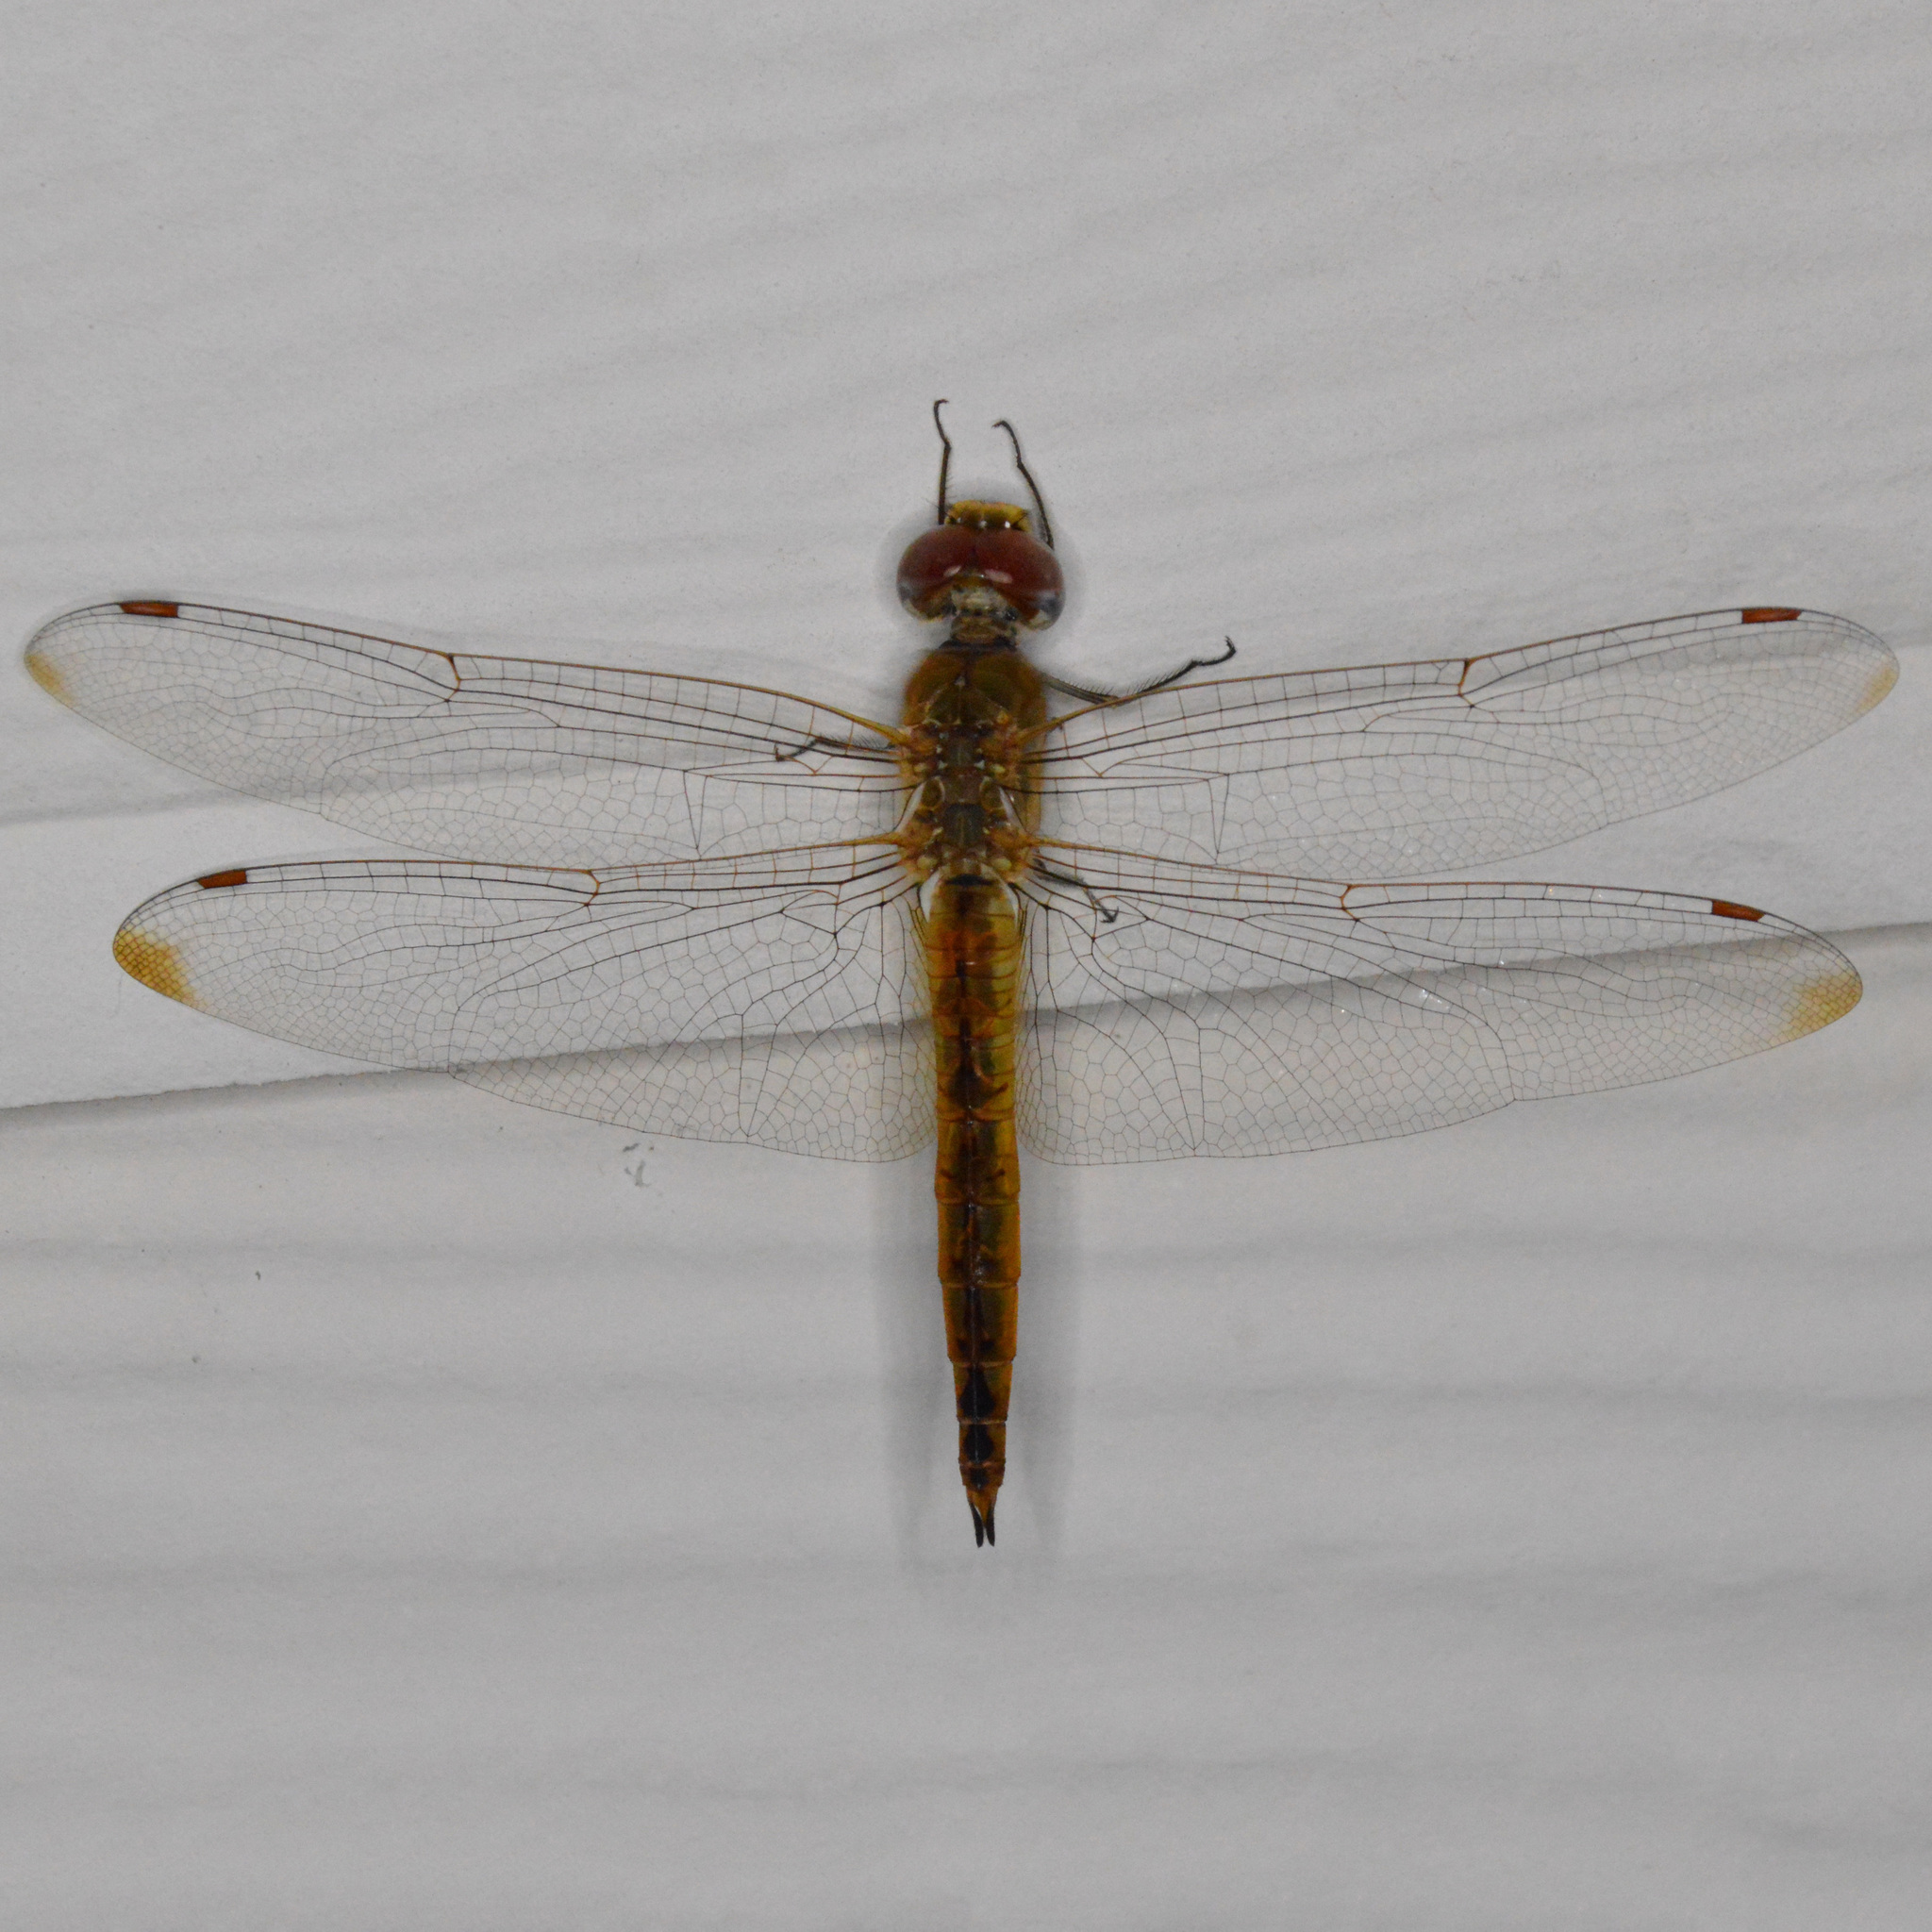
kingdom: Animalia
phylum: Arthropoda
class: Insecta
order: Odonata
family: Libellulidae
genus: Pantala
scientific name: Pantala flavescens
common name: Wandering glider
